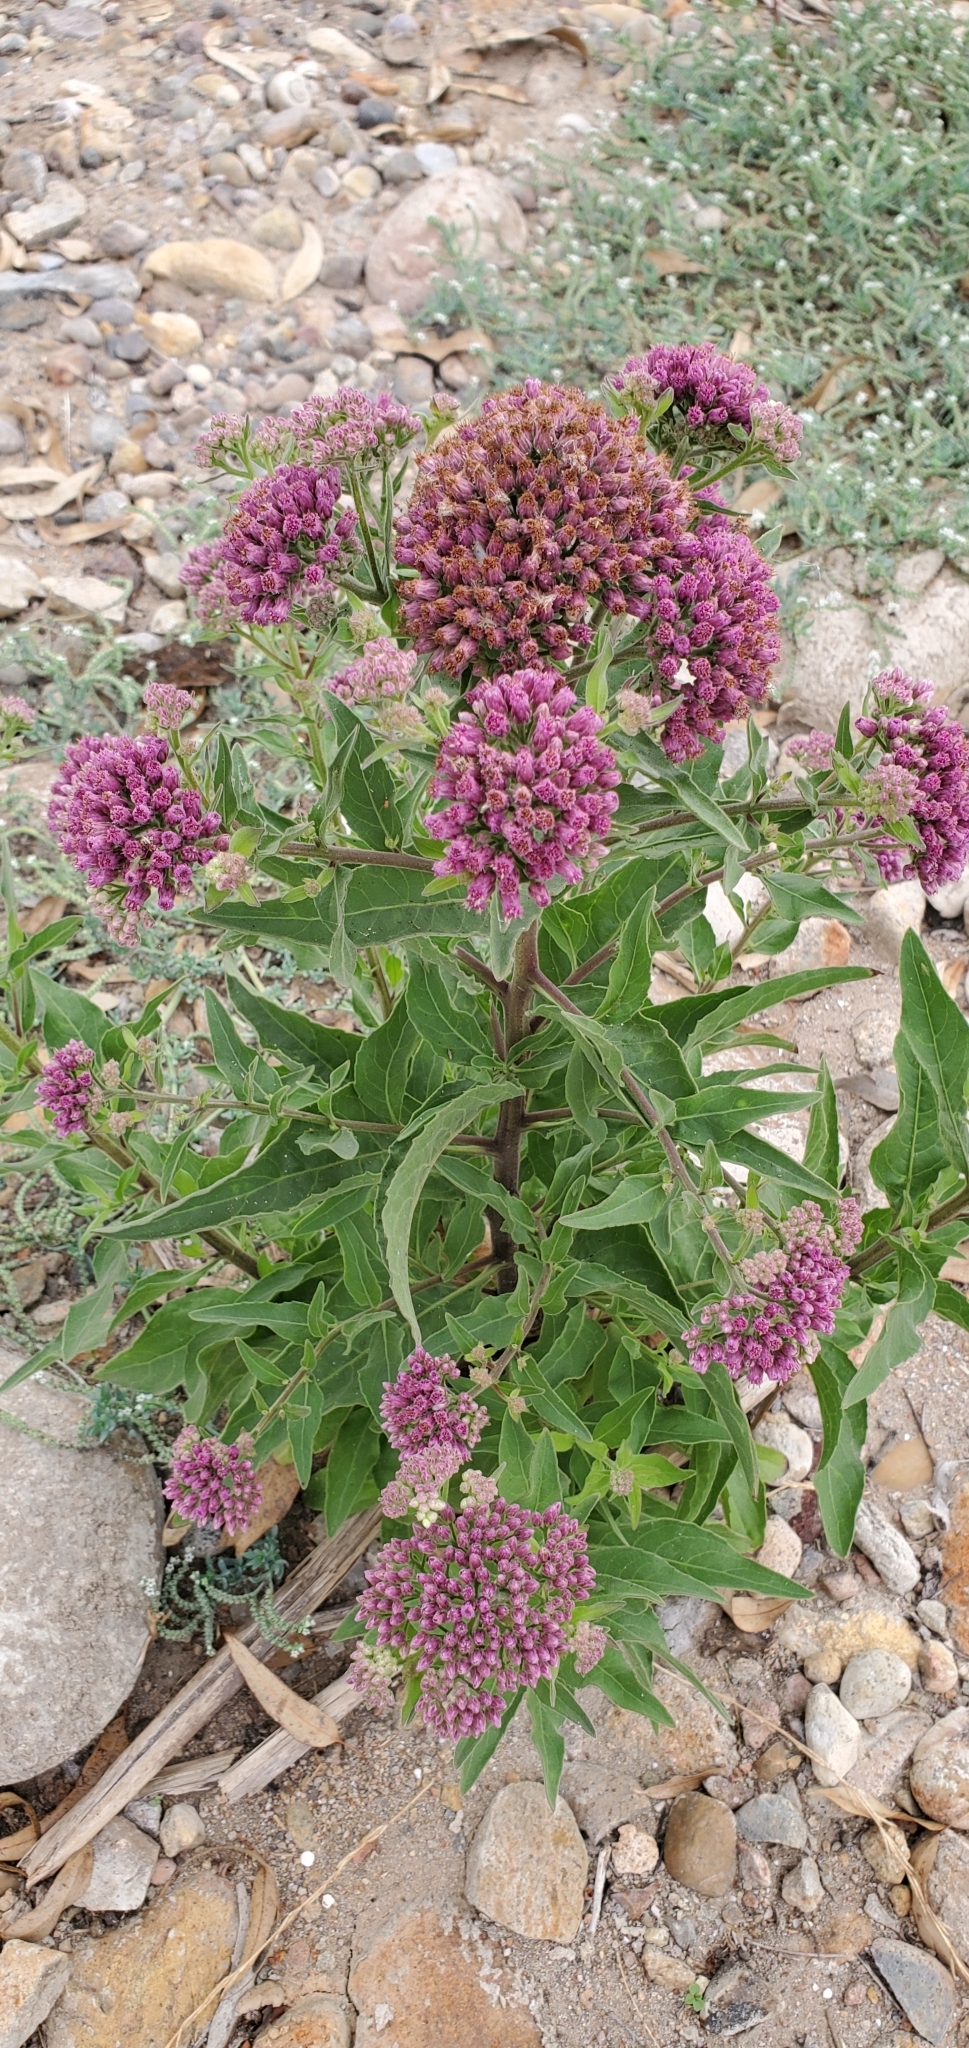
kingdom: Plantae
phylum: Tracheophyta
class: Magnoliopsida
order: Asterales
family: Asteraceae
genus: Pluchea
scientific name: Pluchea odorata
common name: Saltmarsh fleabane
